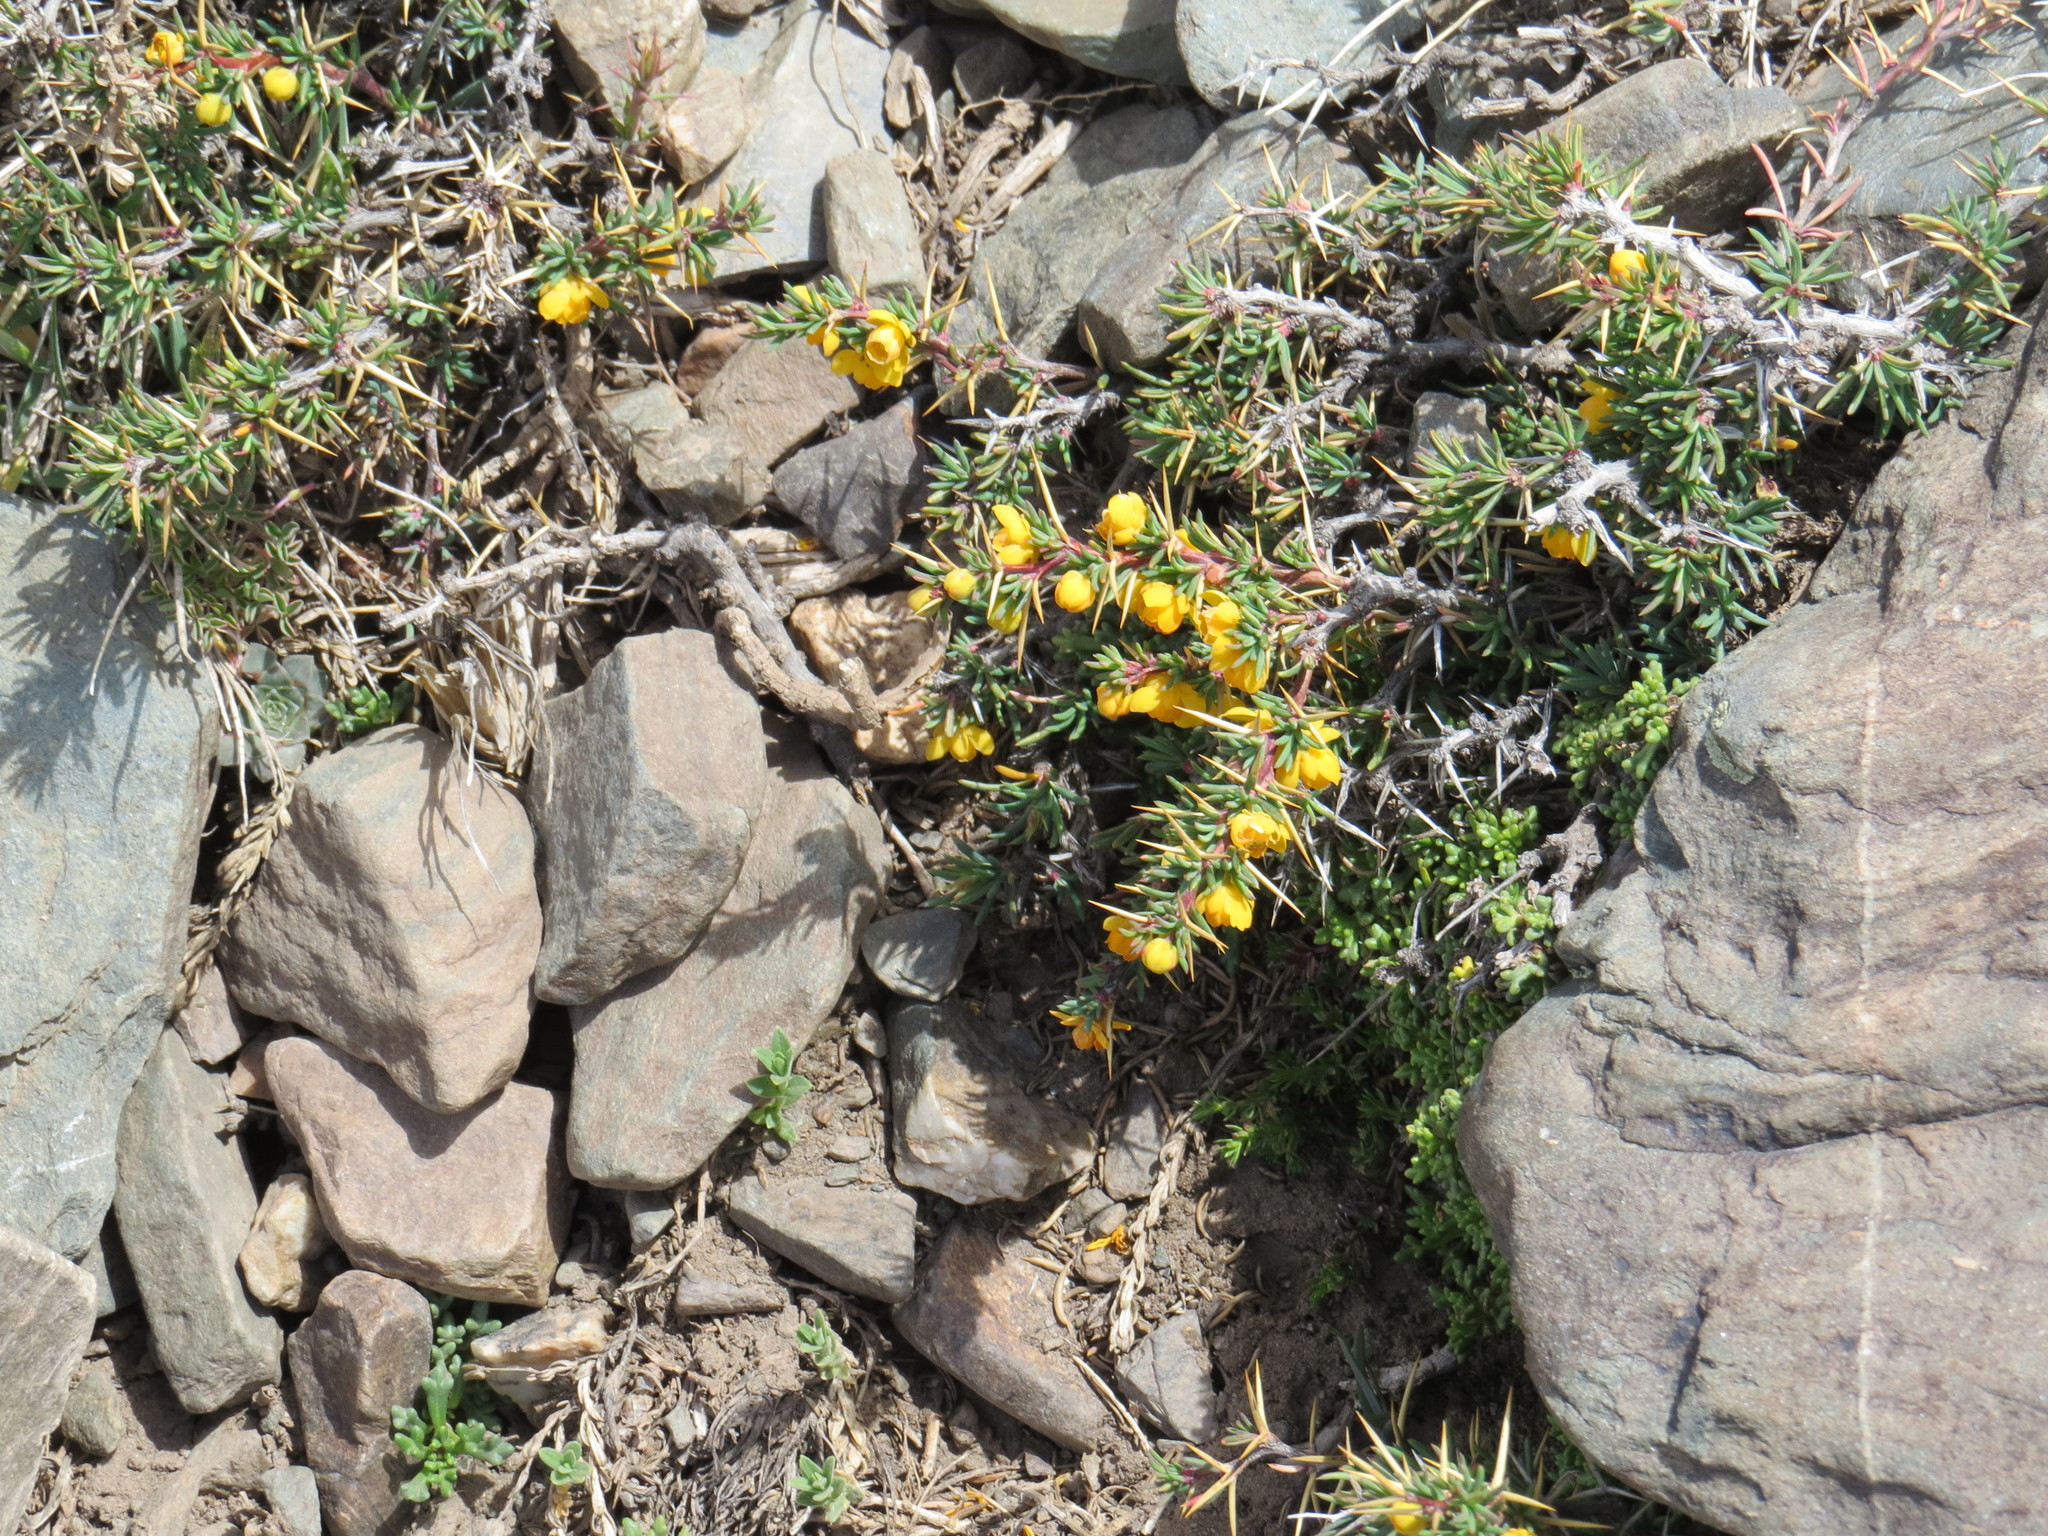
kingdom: Plantae
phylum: Tracheophyta
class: Magnoliopsida
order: Ranunculales
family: Berberidaceae
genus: Berberis
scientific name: Berberis empetrifolia
